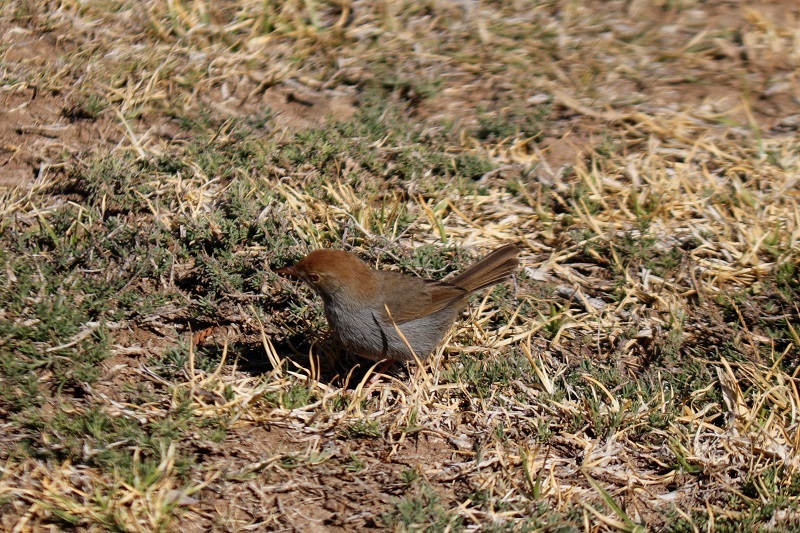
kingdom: Animalia
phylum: Chordata
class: Aves
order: Passeriformes
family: Cisticolidae
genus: Cisticola
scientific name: Cisticola fulvicapilla
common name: Neddicky
